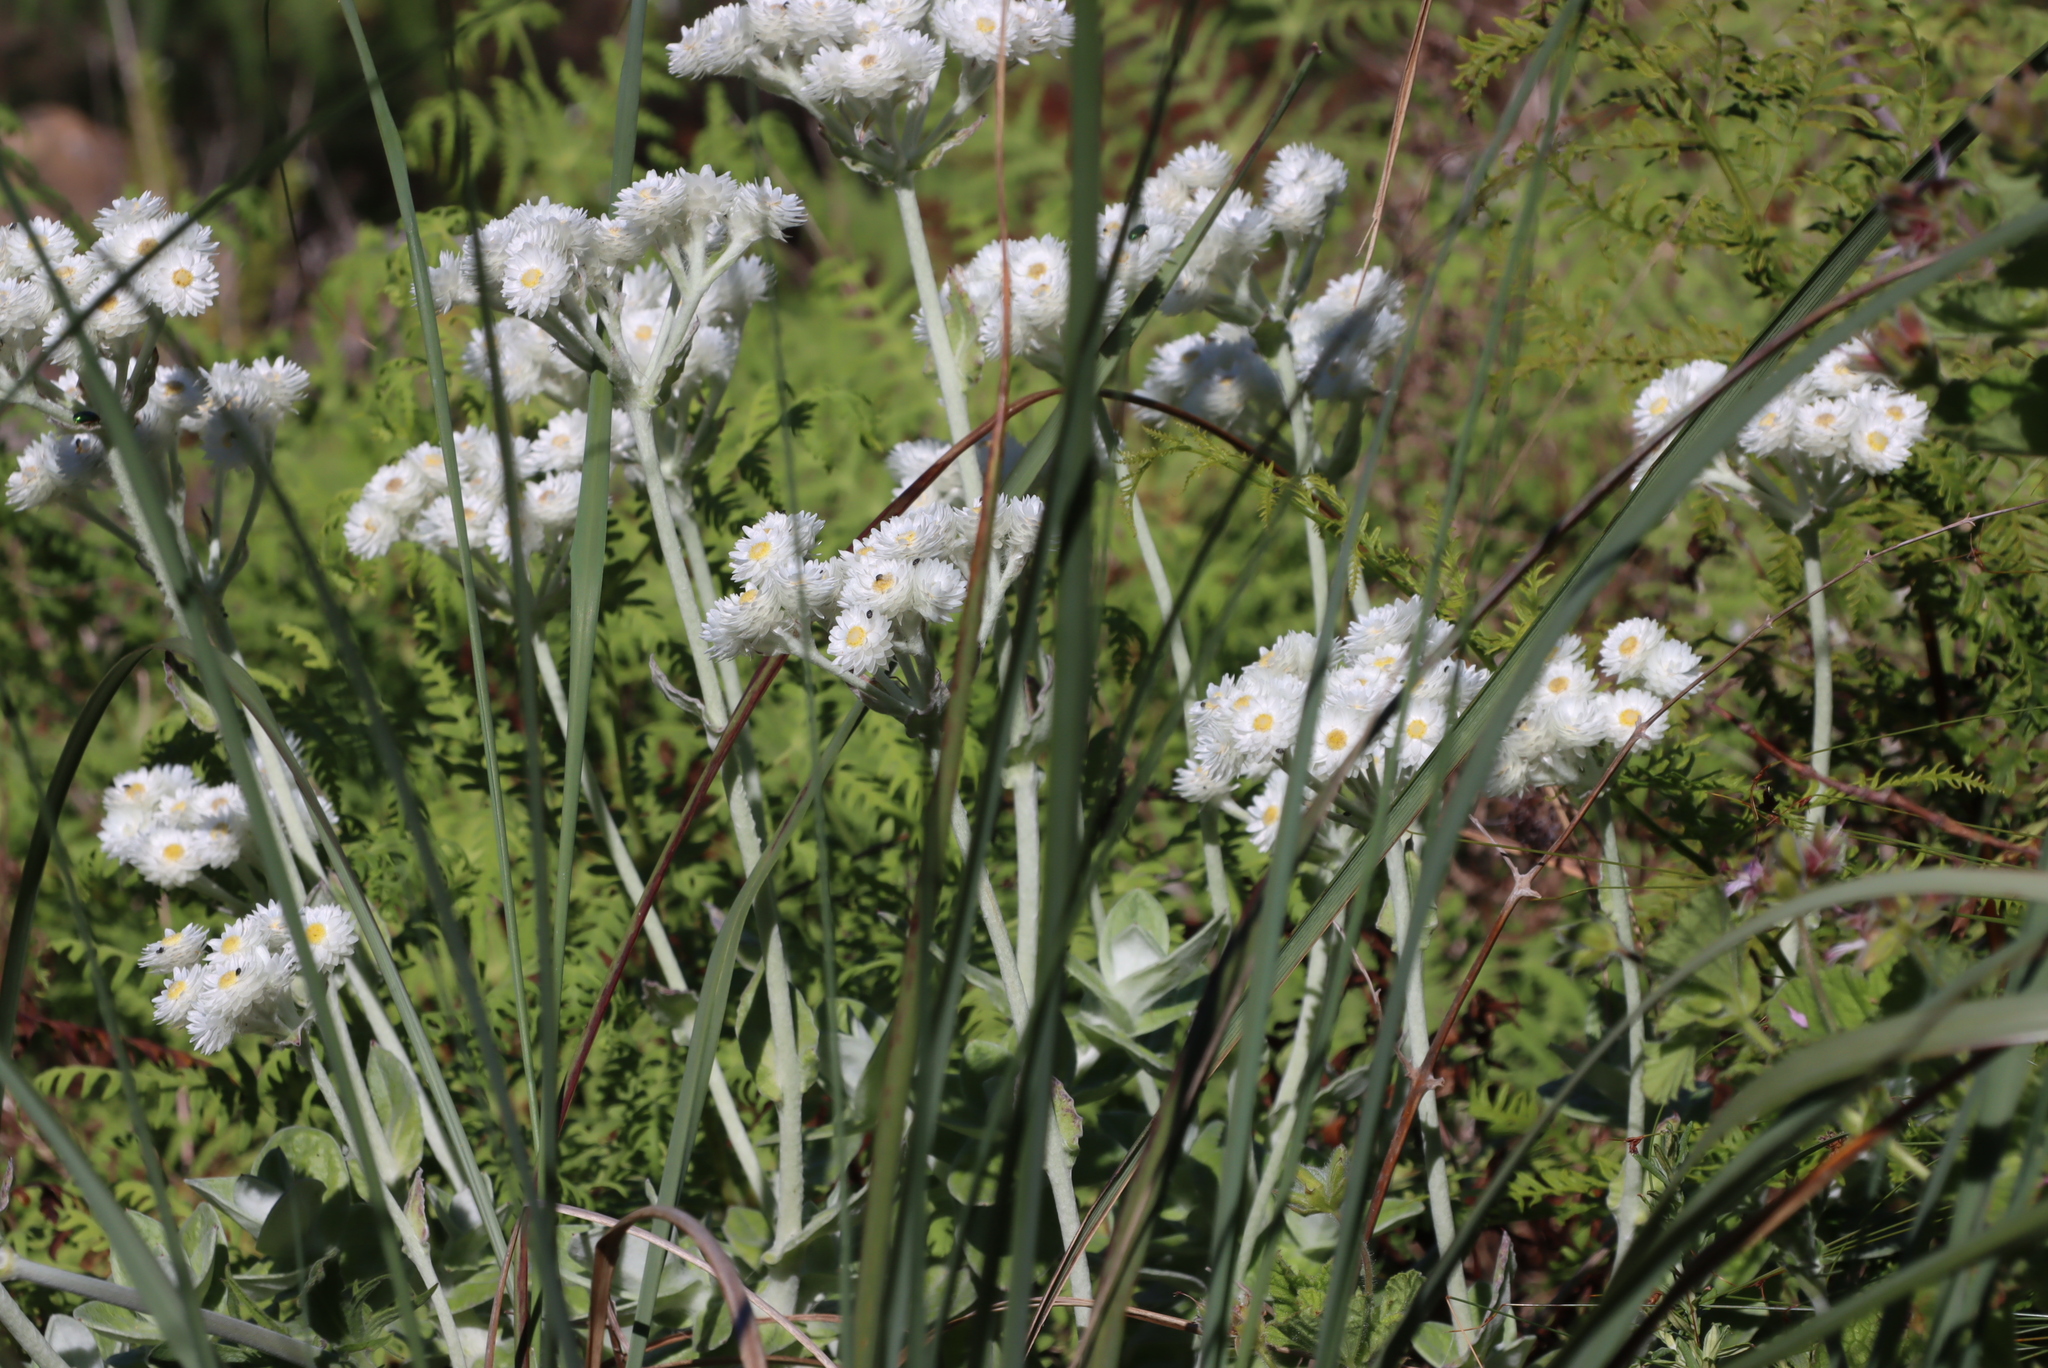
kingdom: Plantae
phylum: Tracheophyta
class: Magnoliopsida
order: Asterales
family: Asteraceae
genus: Helichrysum
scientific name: Helichrysum fruticans
